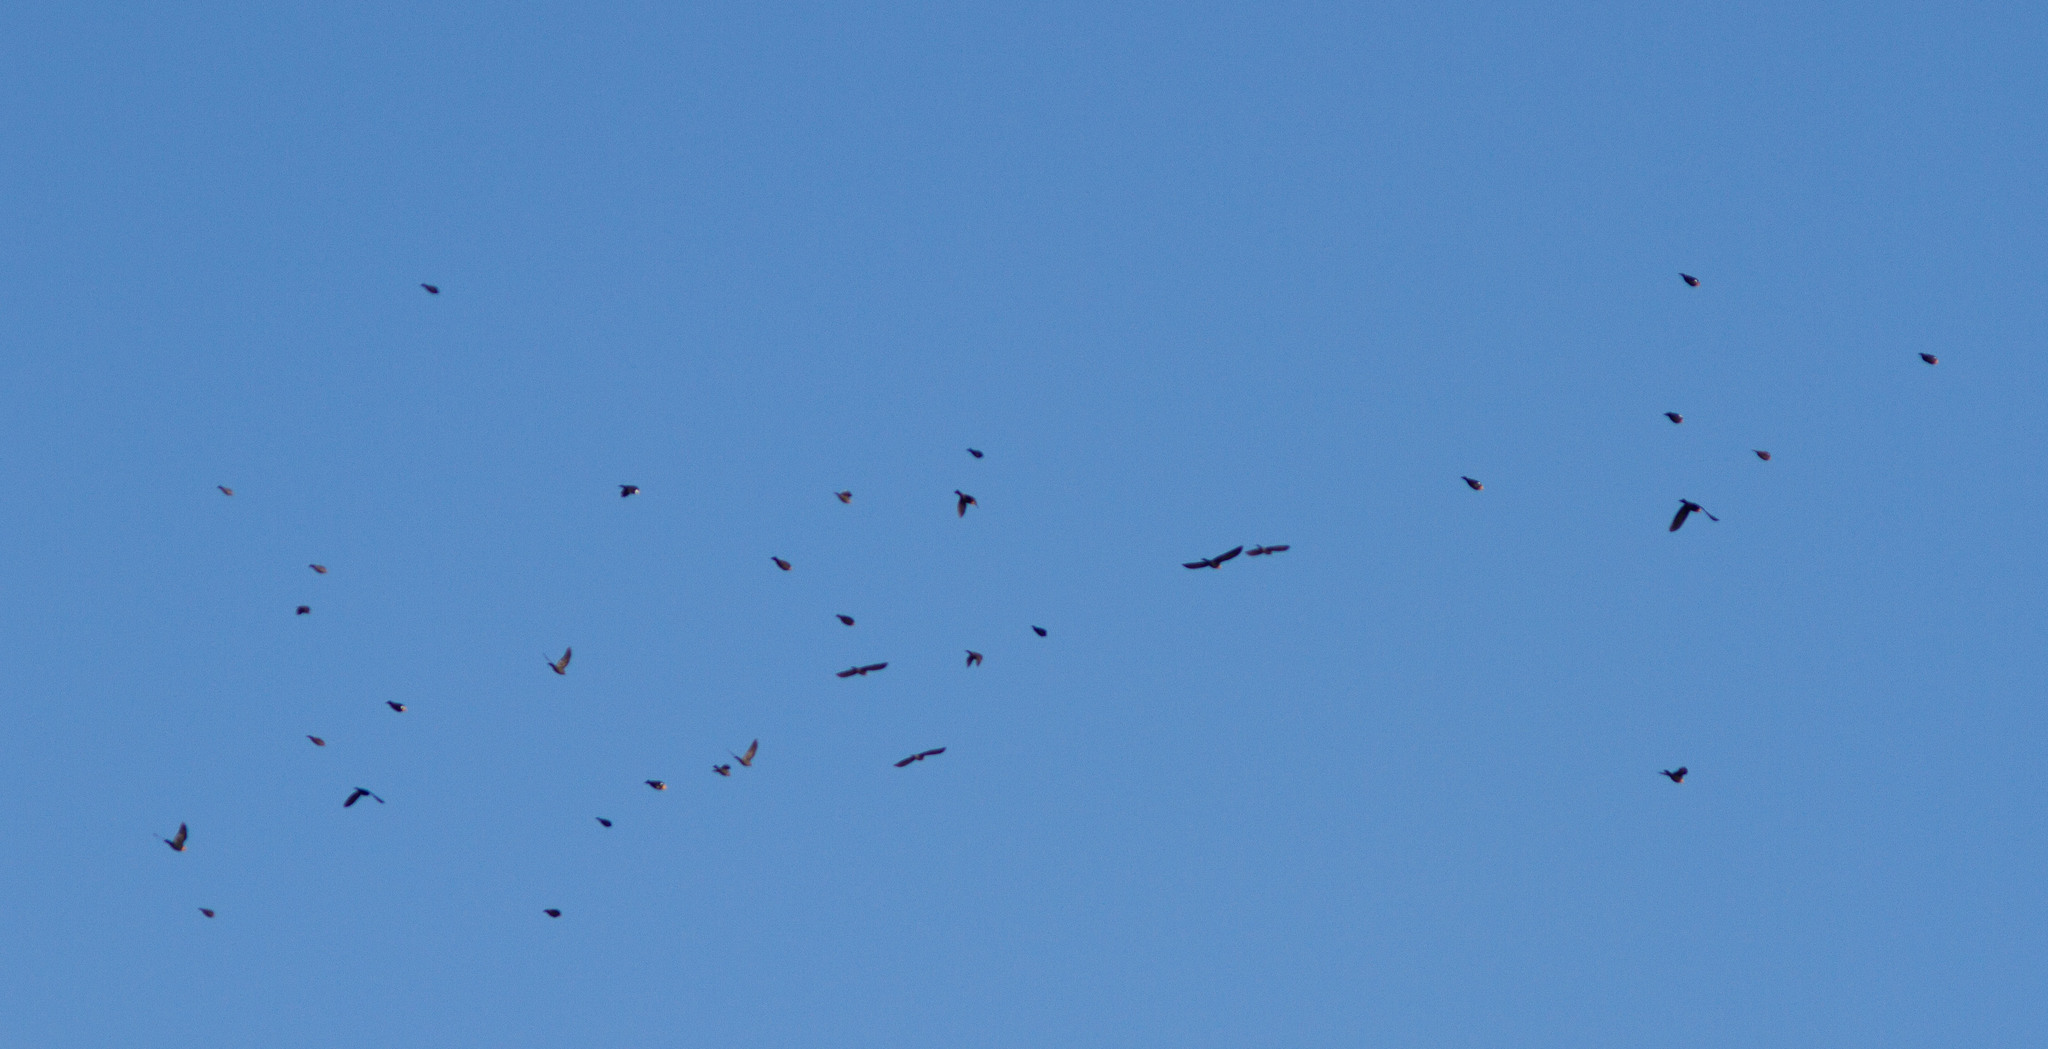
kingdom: Animalia
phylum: Chordata
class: Aves
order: Passeriformes
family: Icteridae
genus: Xanthocephalus
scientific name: Xanthocephalus xanthocephalus
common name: Yellow-headed blackbird
